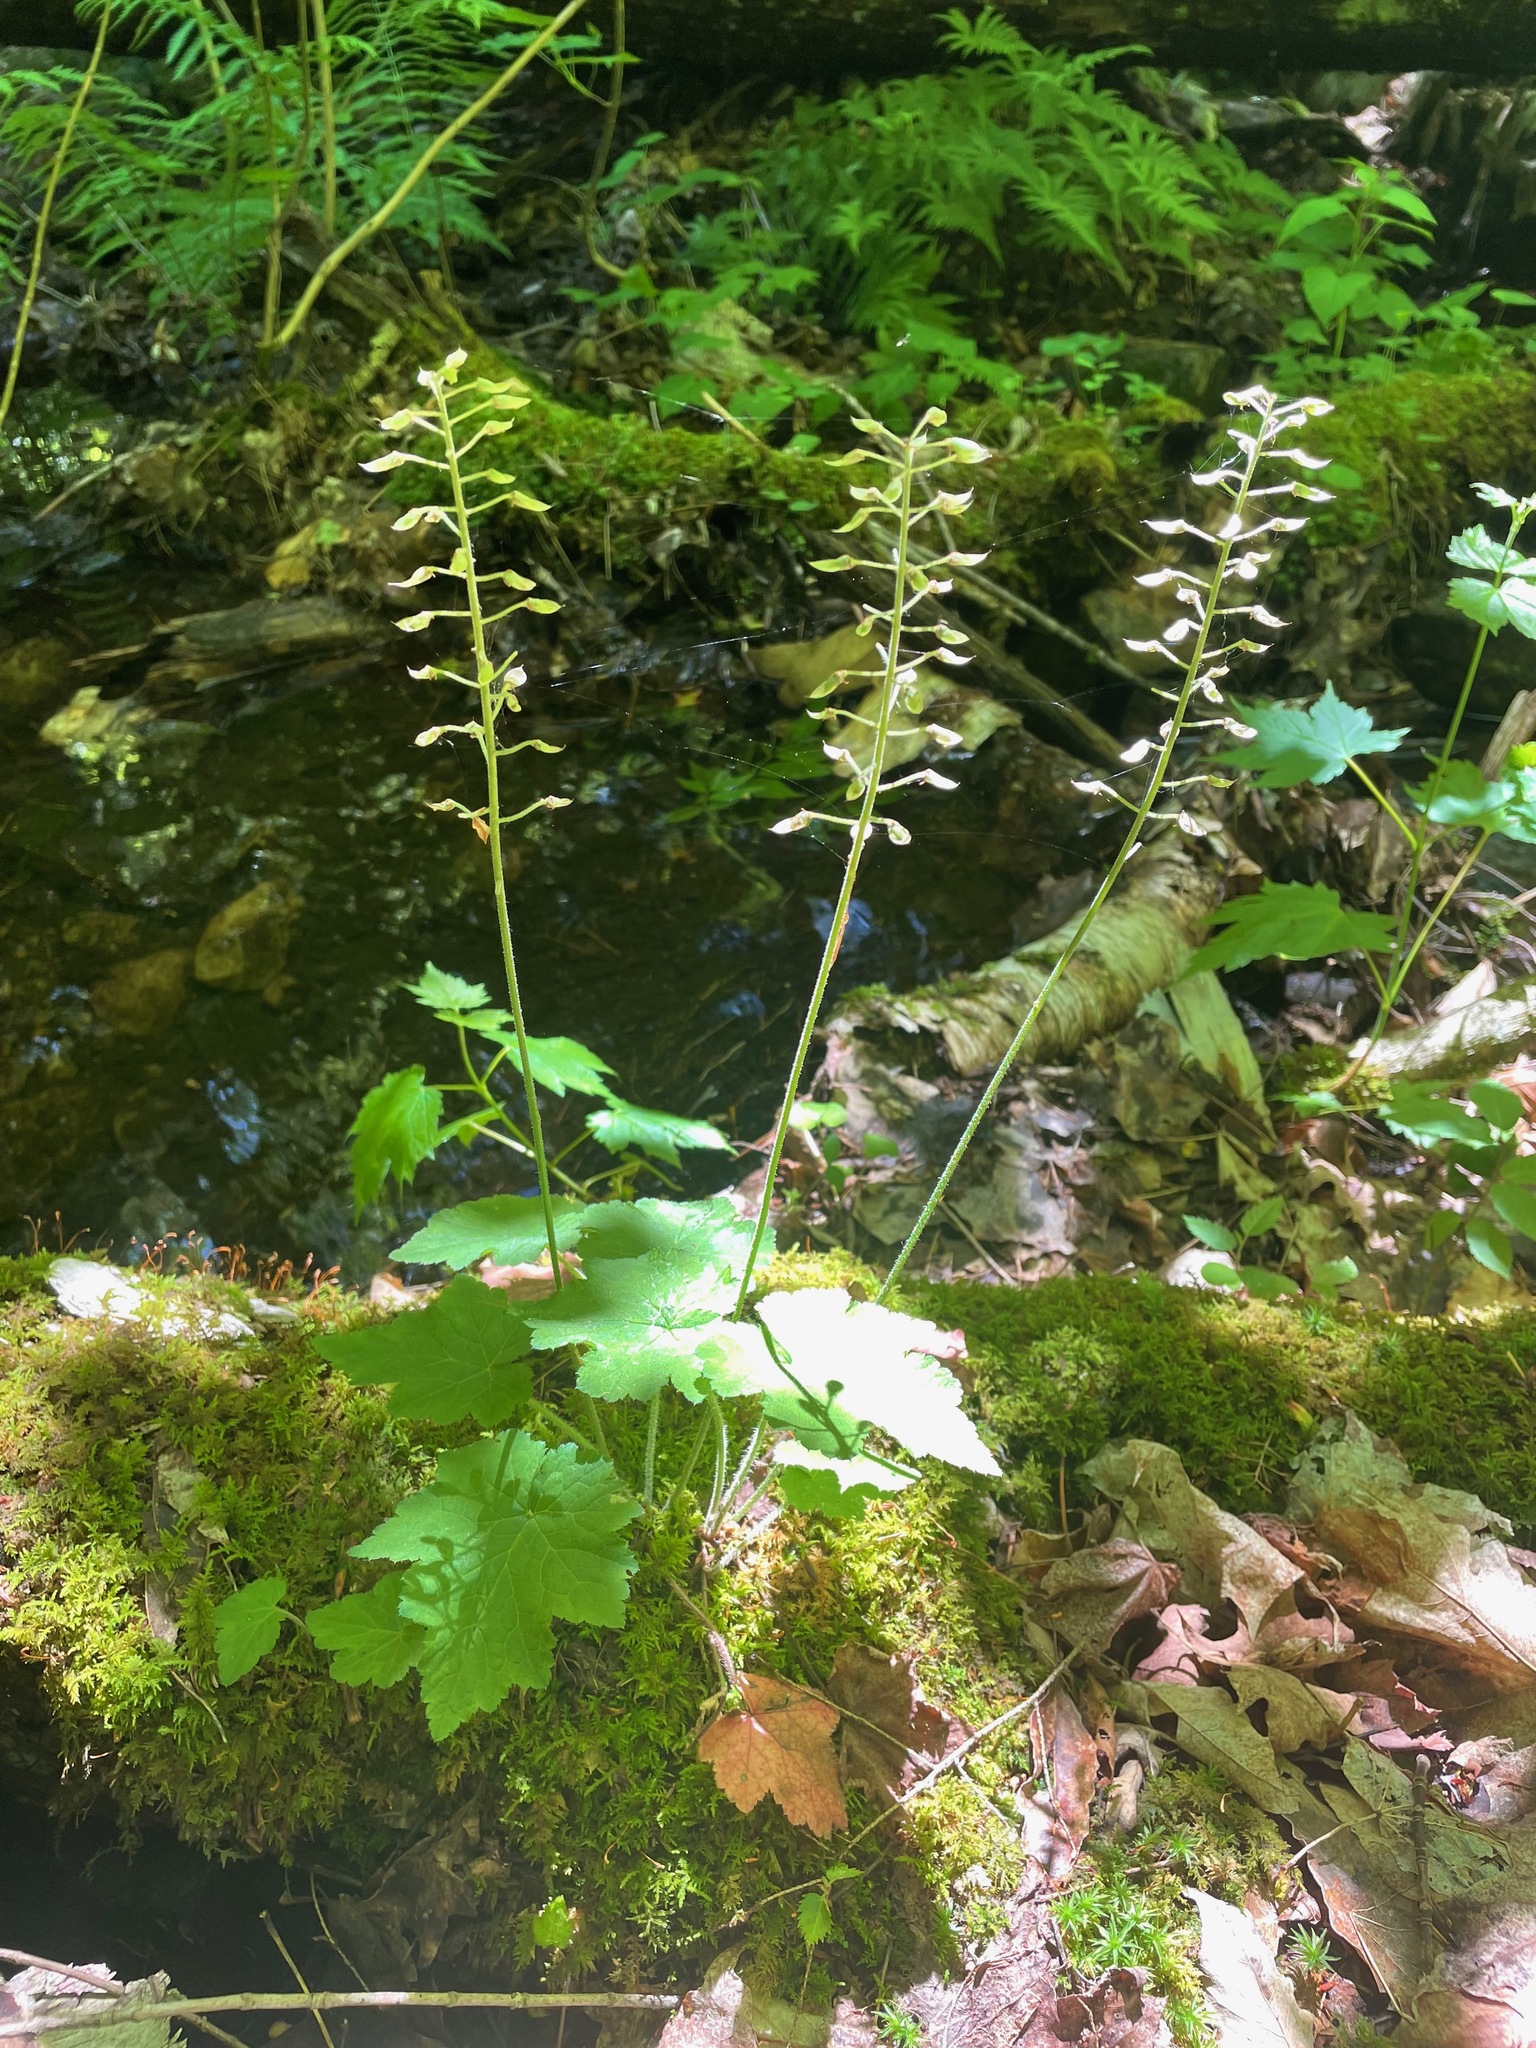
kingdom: Plantae
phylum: Tracheophyta
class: Magnoliopsida
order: Saxifragales
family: Saxifragaceae
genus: Tiarella
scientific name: Tiarella stolonifera
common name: Stoloniferous foamflower
